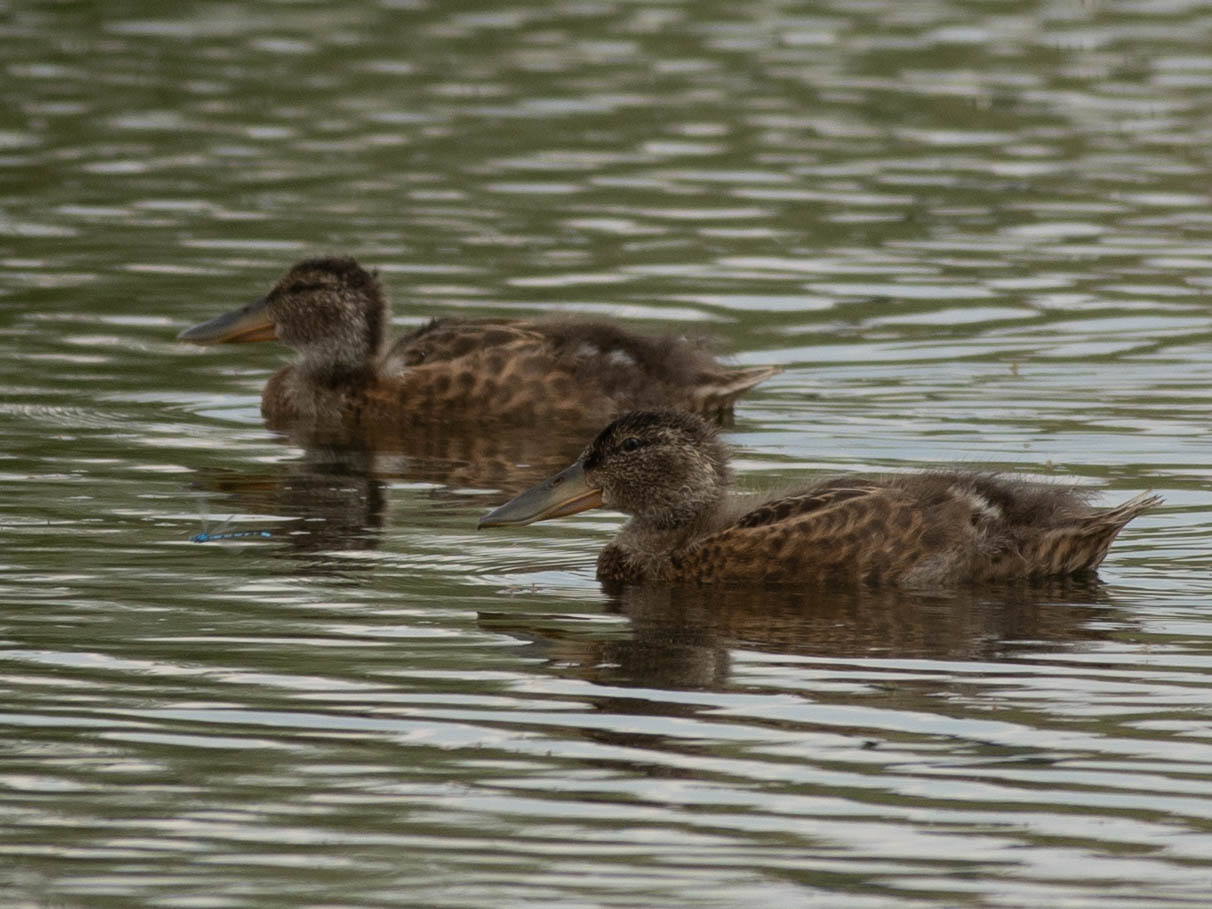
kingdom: Animalia
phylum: Chordata
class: Aves
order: Anseriformes
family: Anatidae
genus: Spatula
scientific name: Spatula clypeata
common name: Northern shoveler
